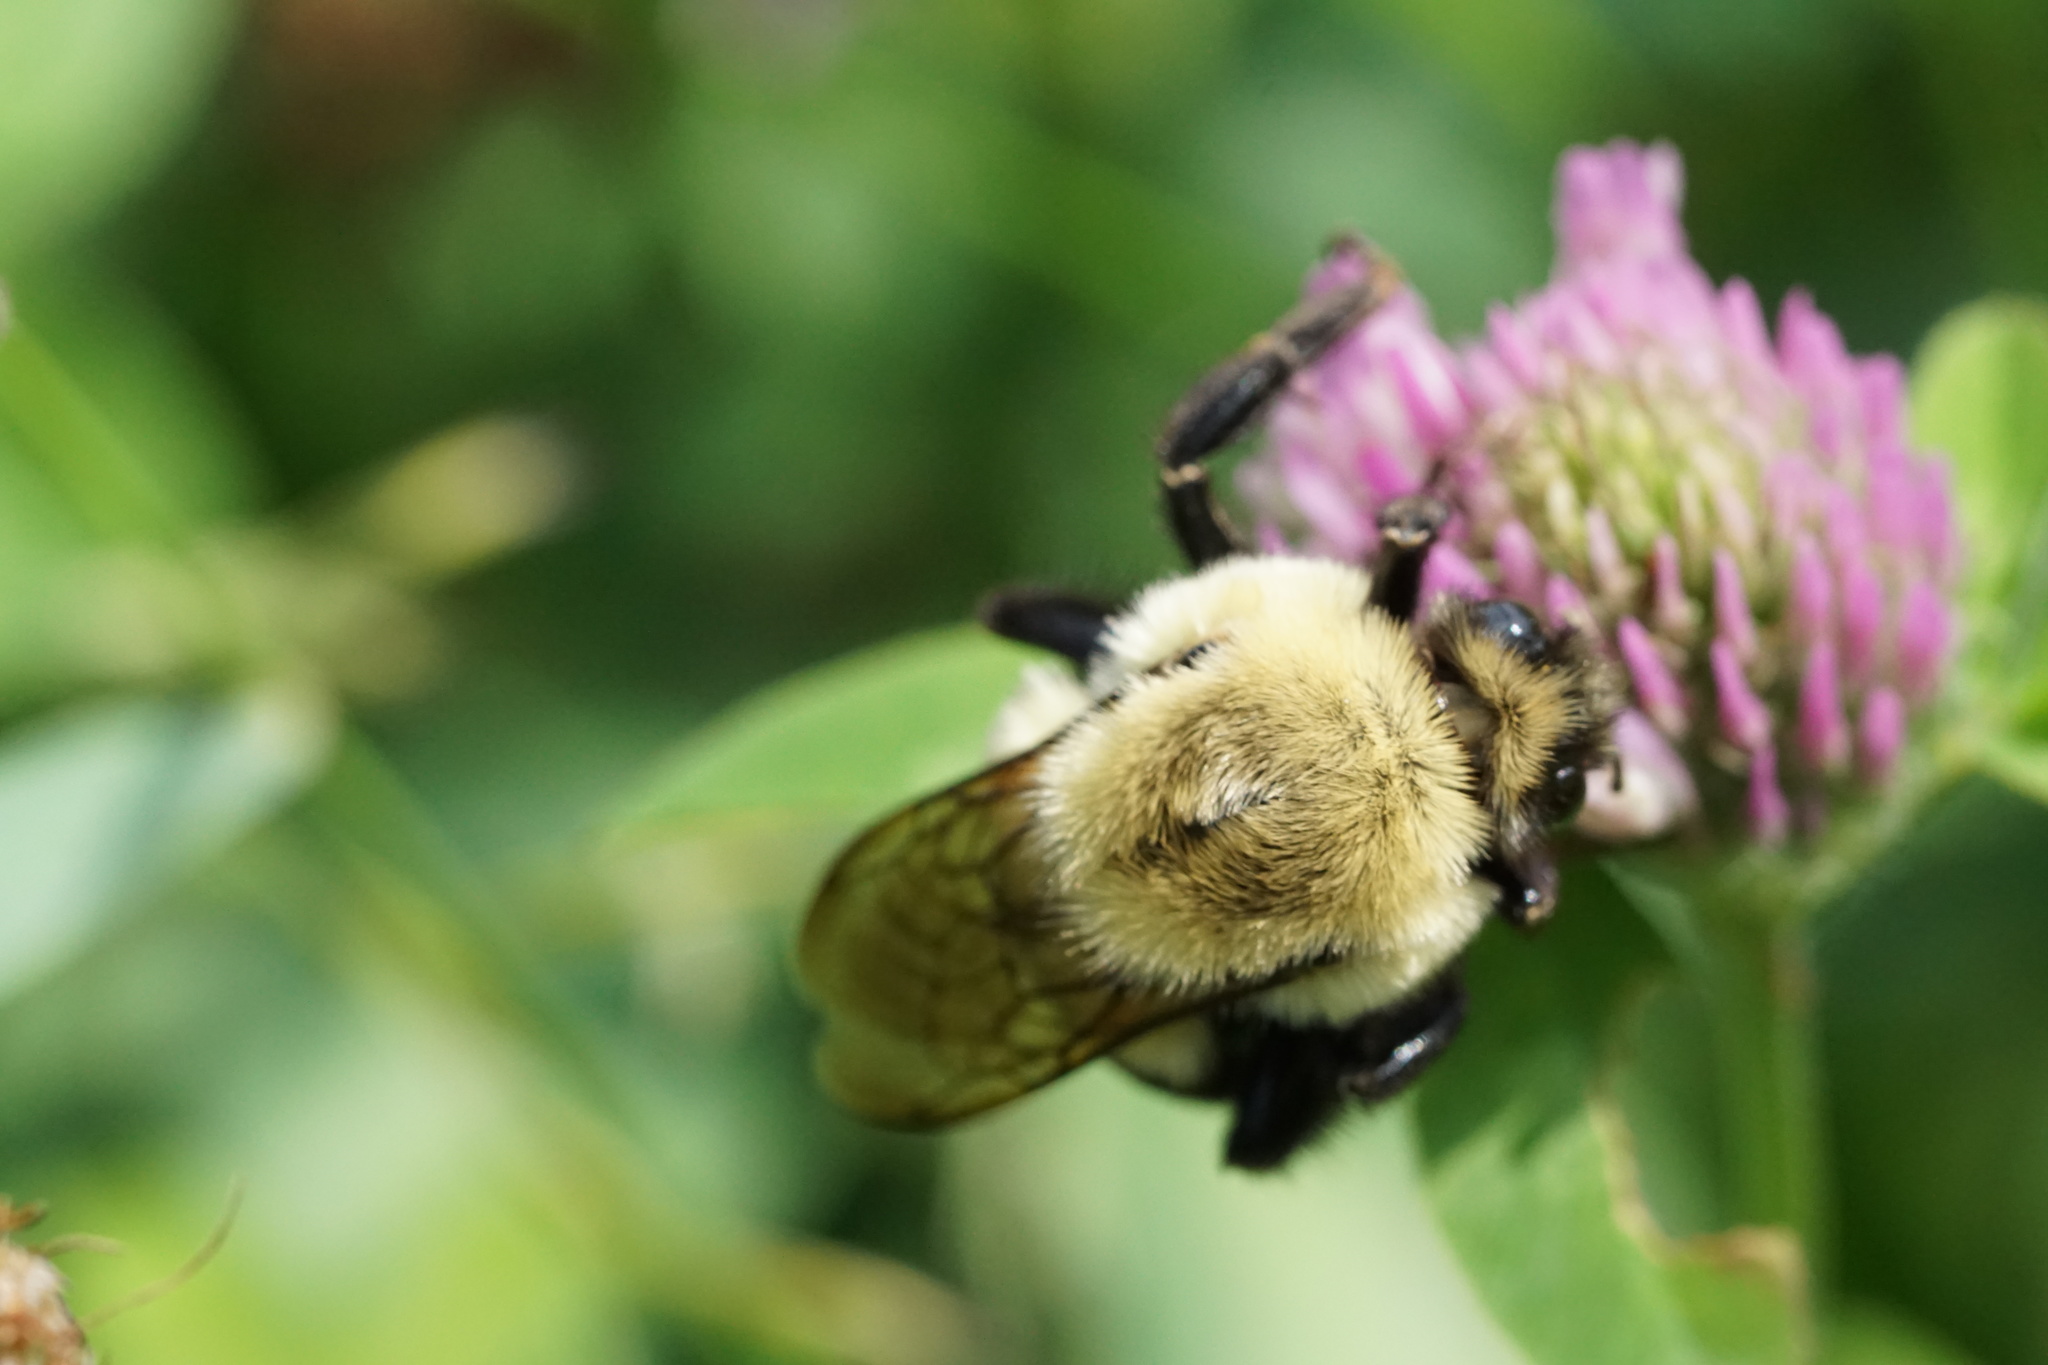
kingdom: Animalia
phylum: Arthropoda
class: Insecta
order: Hymenoptera
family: Apidae
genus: Bombus
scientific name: Bombus impatiens
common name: Common eastern bumble bee
